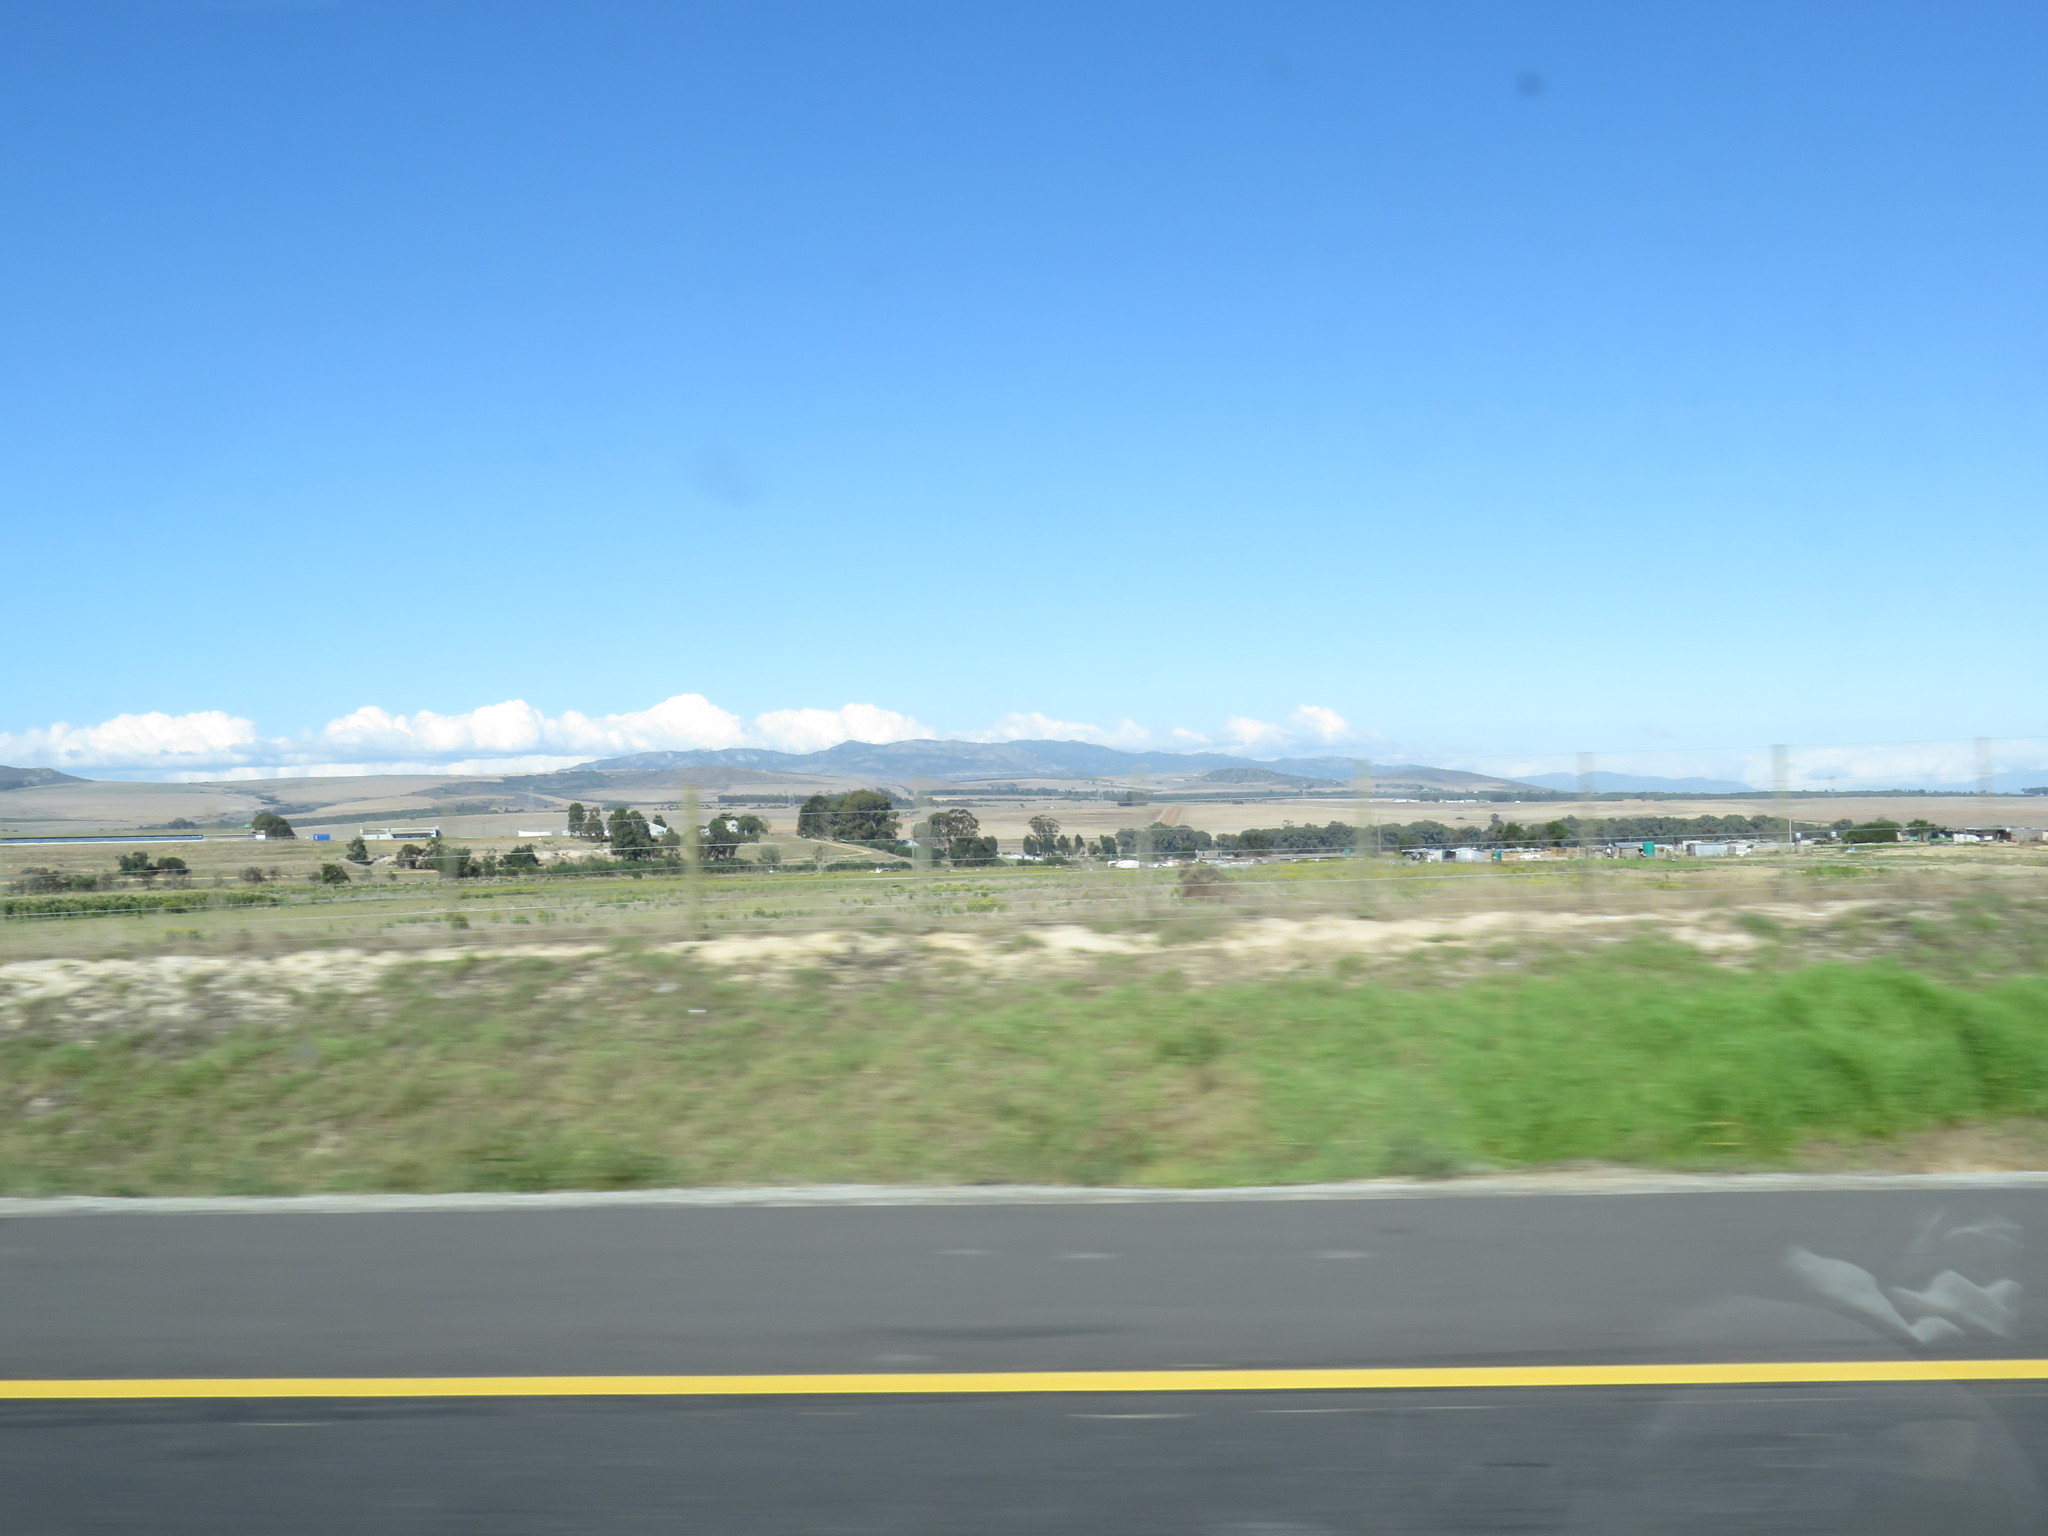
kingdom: Plantae
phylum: Tracheophyta
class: Magnoliopsida
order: Asterales
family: Asteraceae
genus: Verbesina
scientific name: Verbesina encelioides
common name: Golden crownbeard
